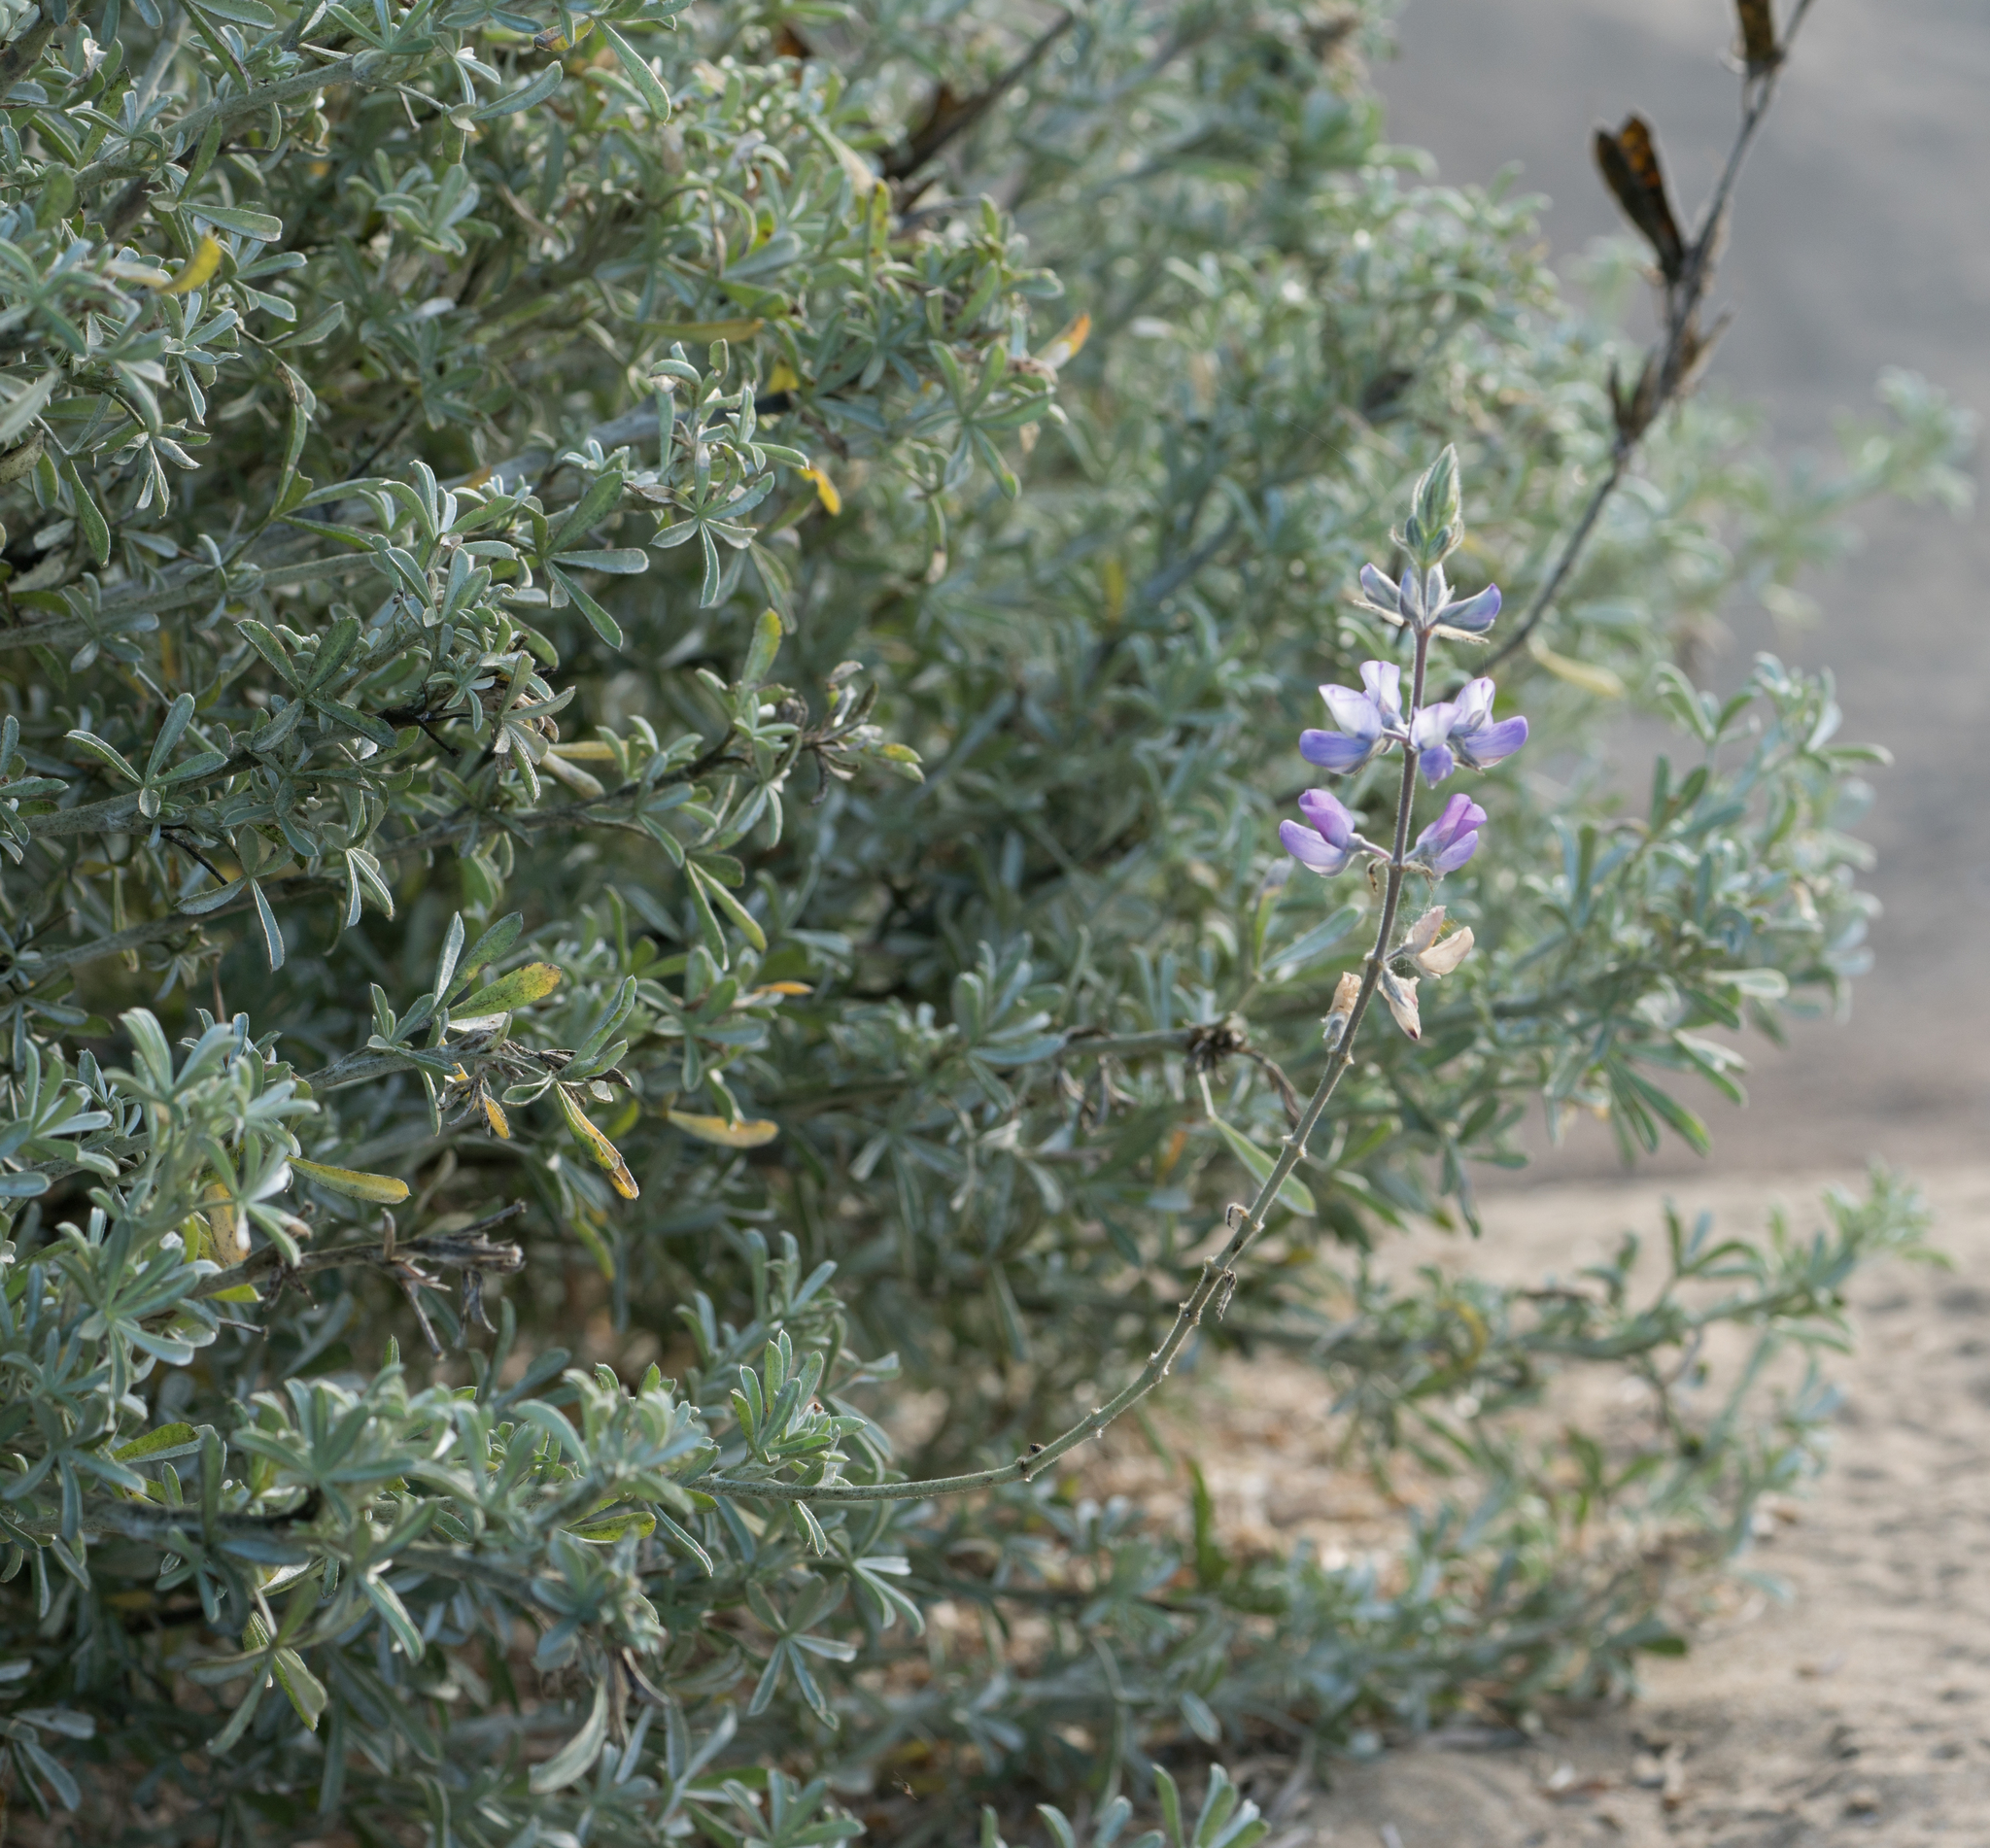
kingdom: Plantae
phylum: Tracheophyta
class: Magnoliopsida
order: Fabales
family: Fabaceae
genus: Lupinus
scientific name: Lupinus albifrons
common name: Foothill lupine
